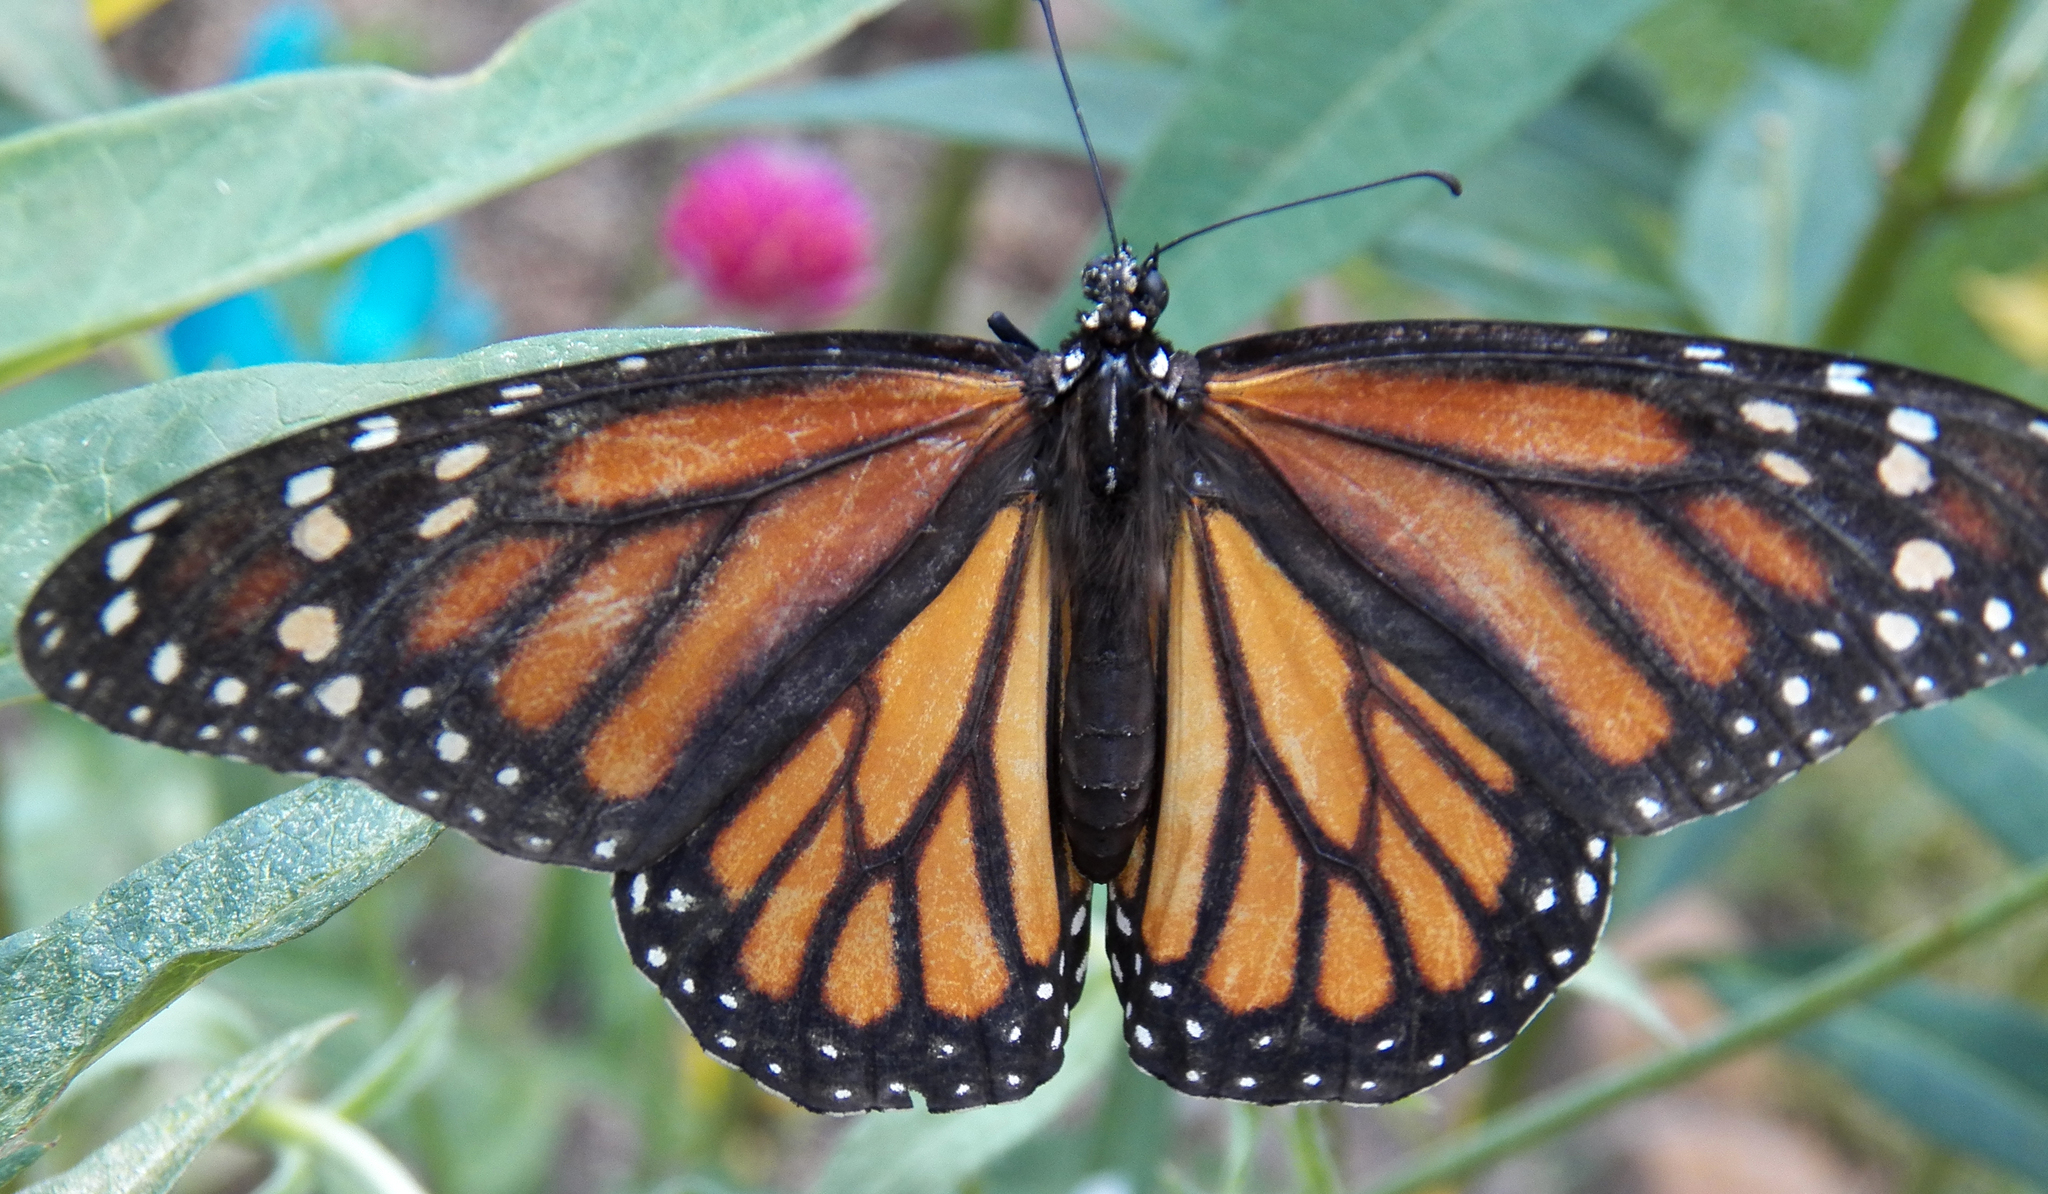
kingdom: Animalia
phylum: Arthropoda
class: Insecta
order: Lepidoptera
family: Nymphalidae
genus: Danaus
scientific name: Danaus plexippus
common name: Monarch
